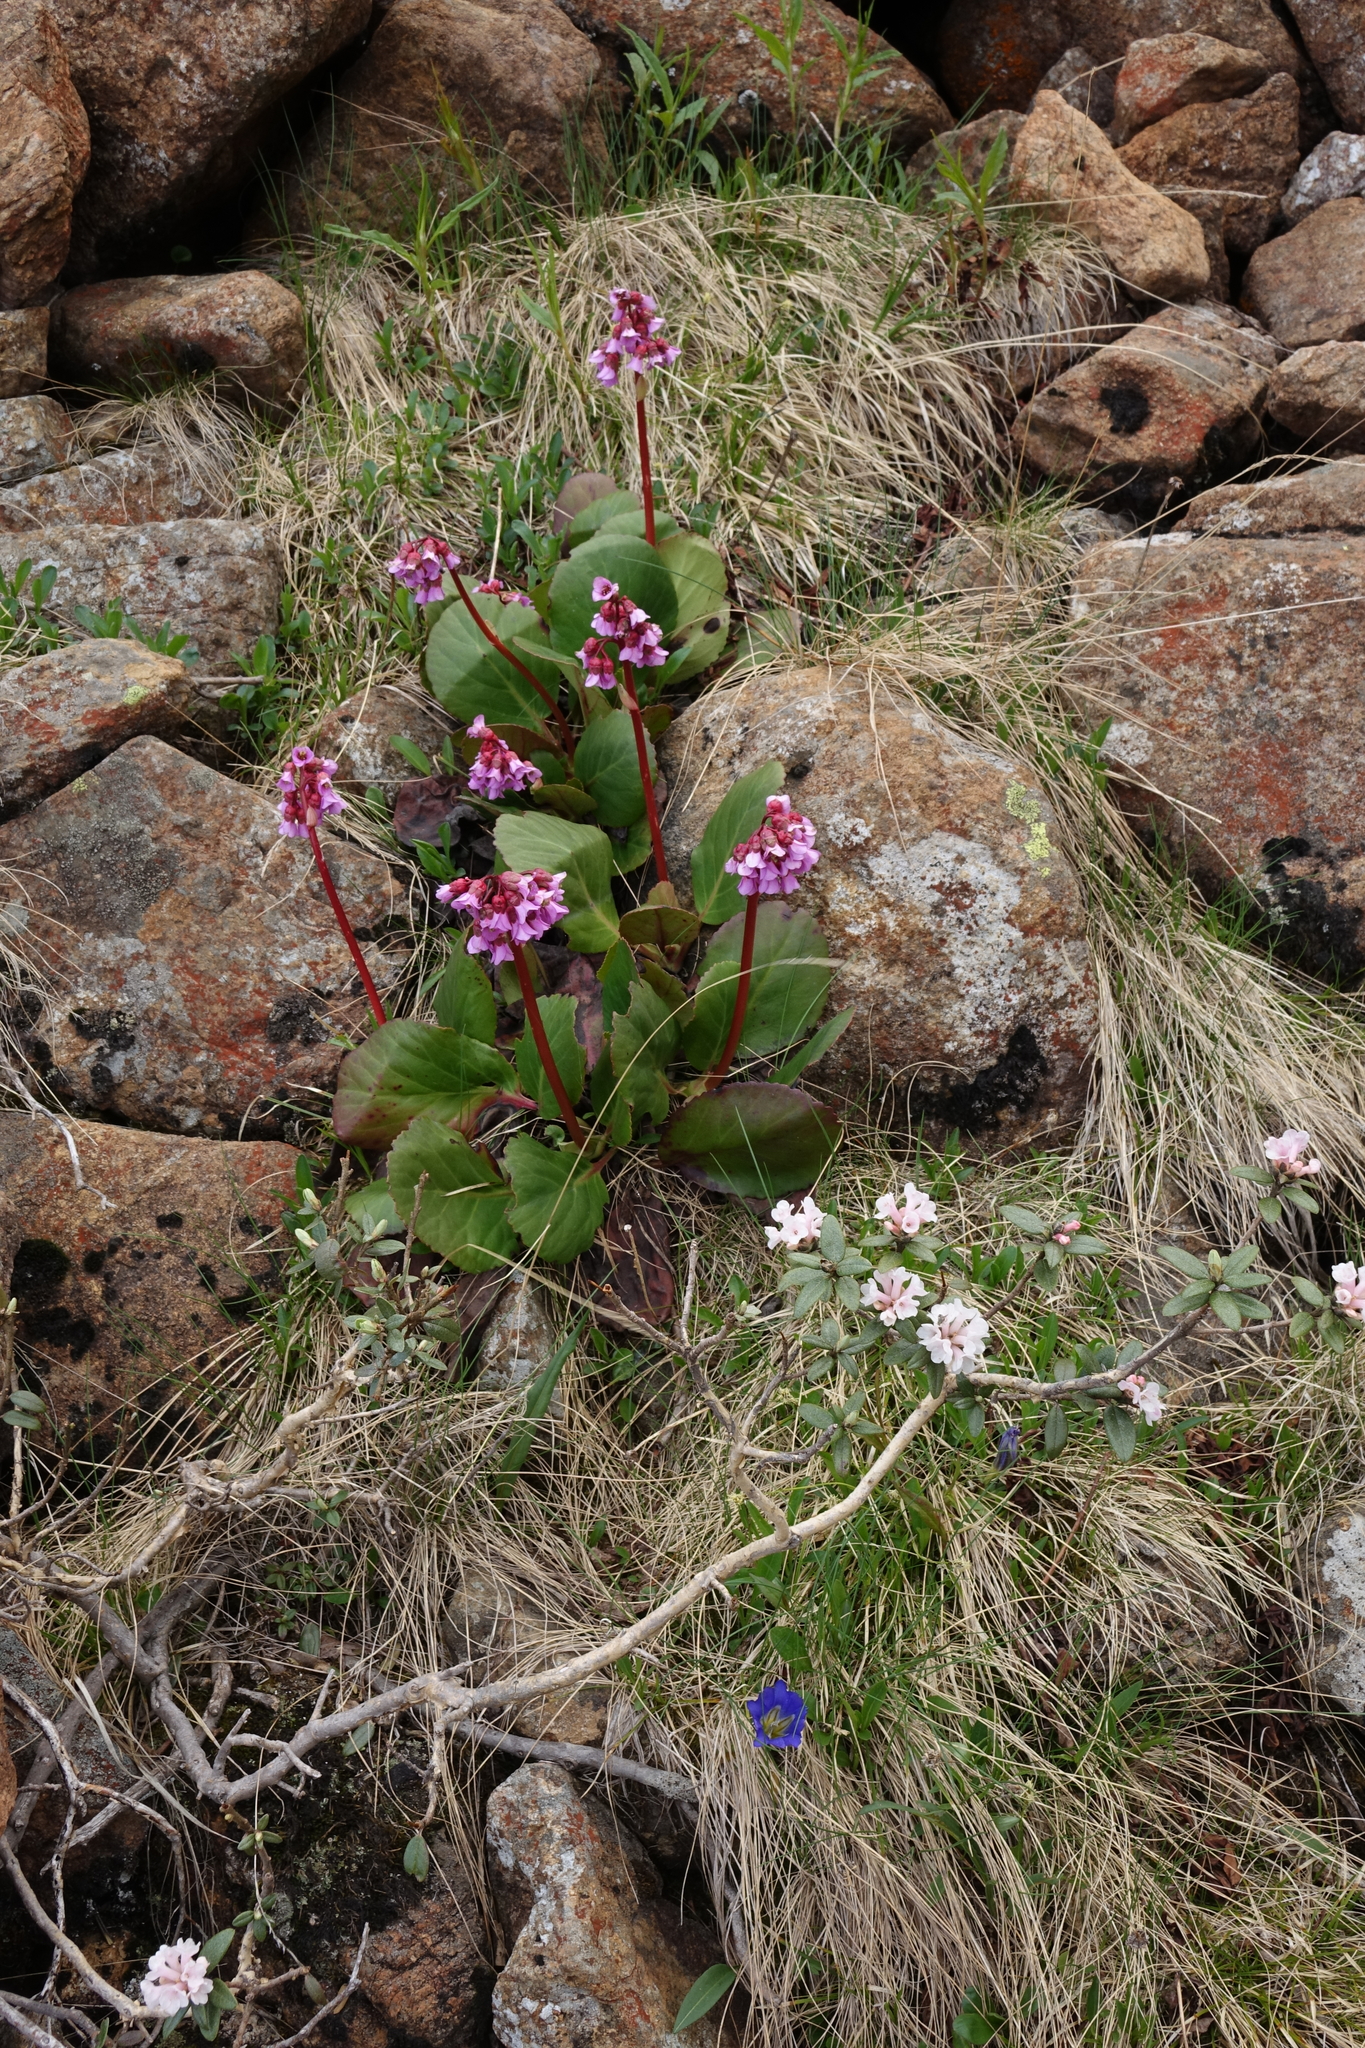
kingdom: Plantae
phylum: Tracheophyta
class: Magnoliopsida
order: Saxifragales
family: Saxifragaceae
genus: Bergenia
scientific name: Bergenia crassifolia
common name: Elephant-ears
